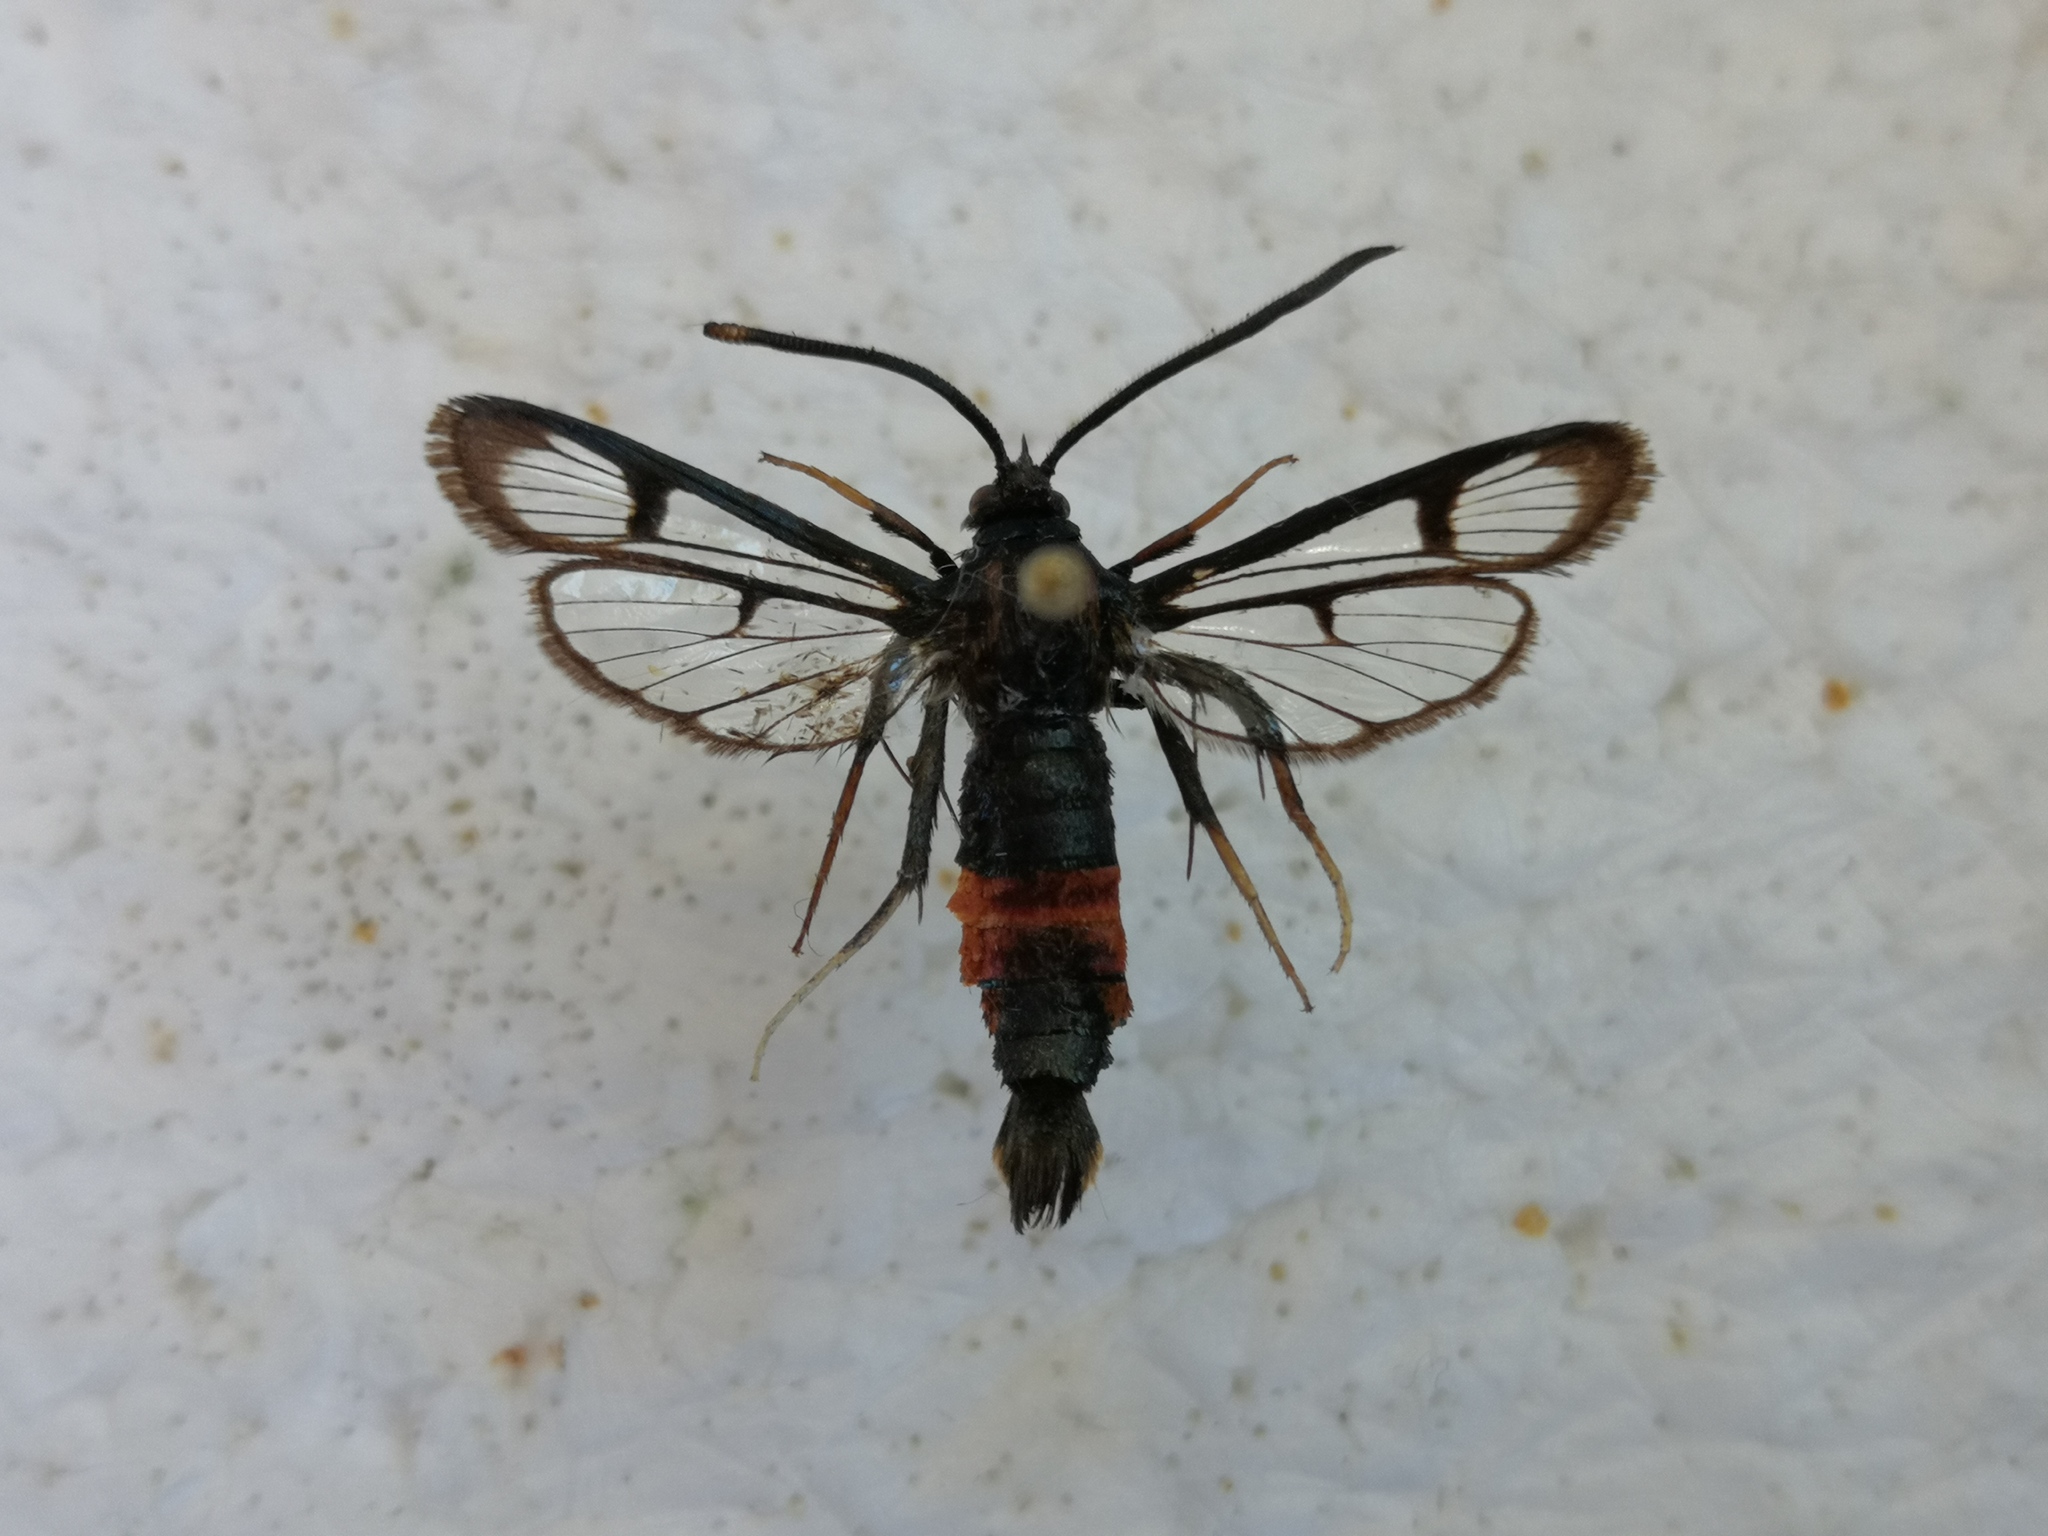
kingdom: Animalia
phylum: Arthropoda
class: Insecta
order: Lepidoptera
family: Sesiidae
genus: Synanthedon
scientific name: Synanthedon stomoxiformis
